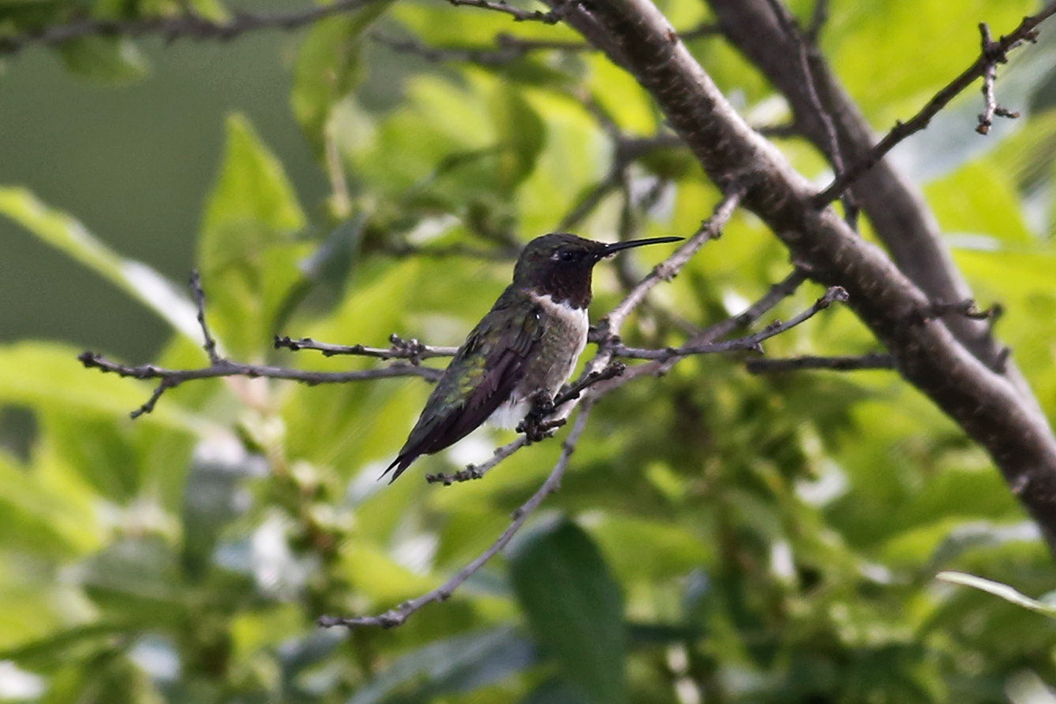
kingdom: Animalia
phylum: Chordata
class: Aves
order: Apodiformes
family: Trochilidae
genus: Archilochus
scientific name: Archilochus colubris
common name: Ruby-throated hummingbird
